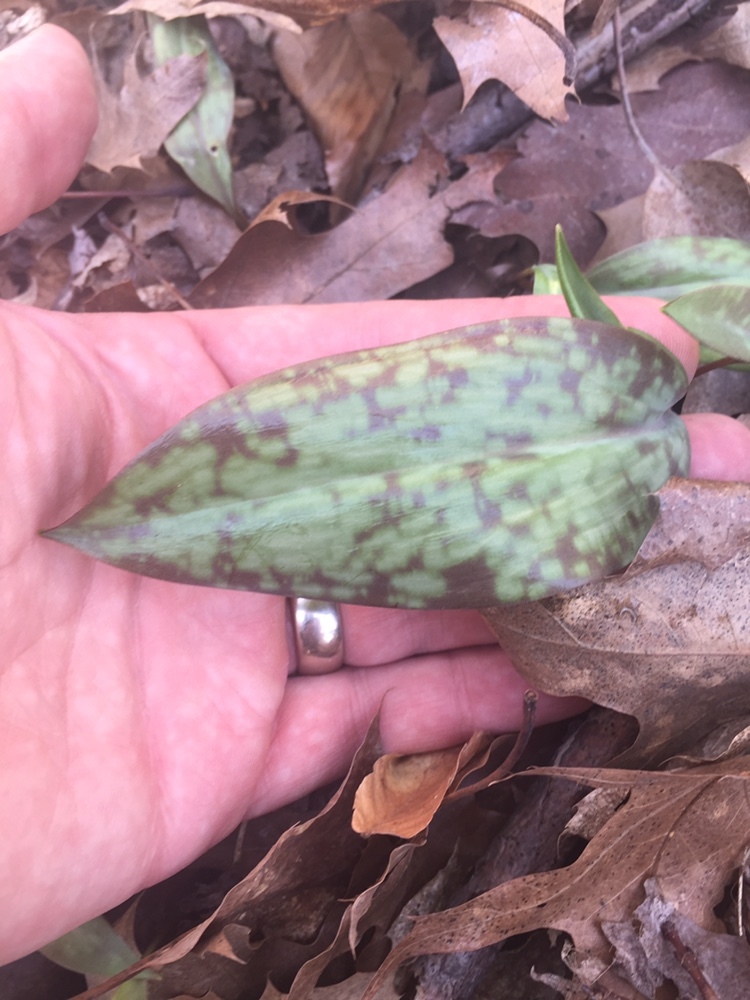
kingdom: Plantae
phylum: Tracheophyta
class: Liliopsida
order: Liliales
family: Liliaceae
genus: Erythronium
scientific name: Erythronium
